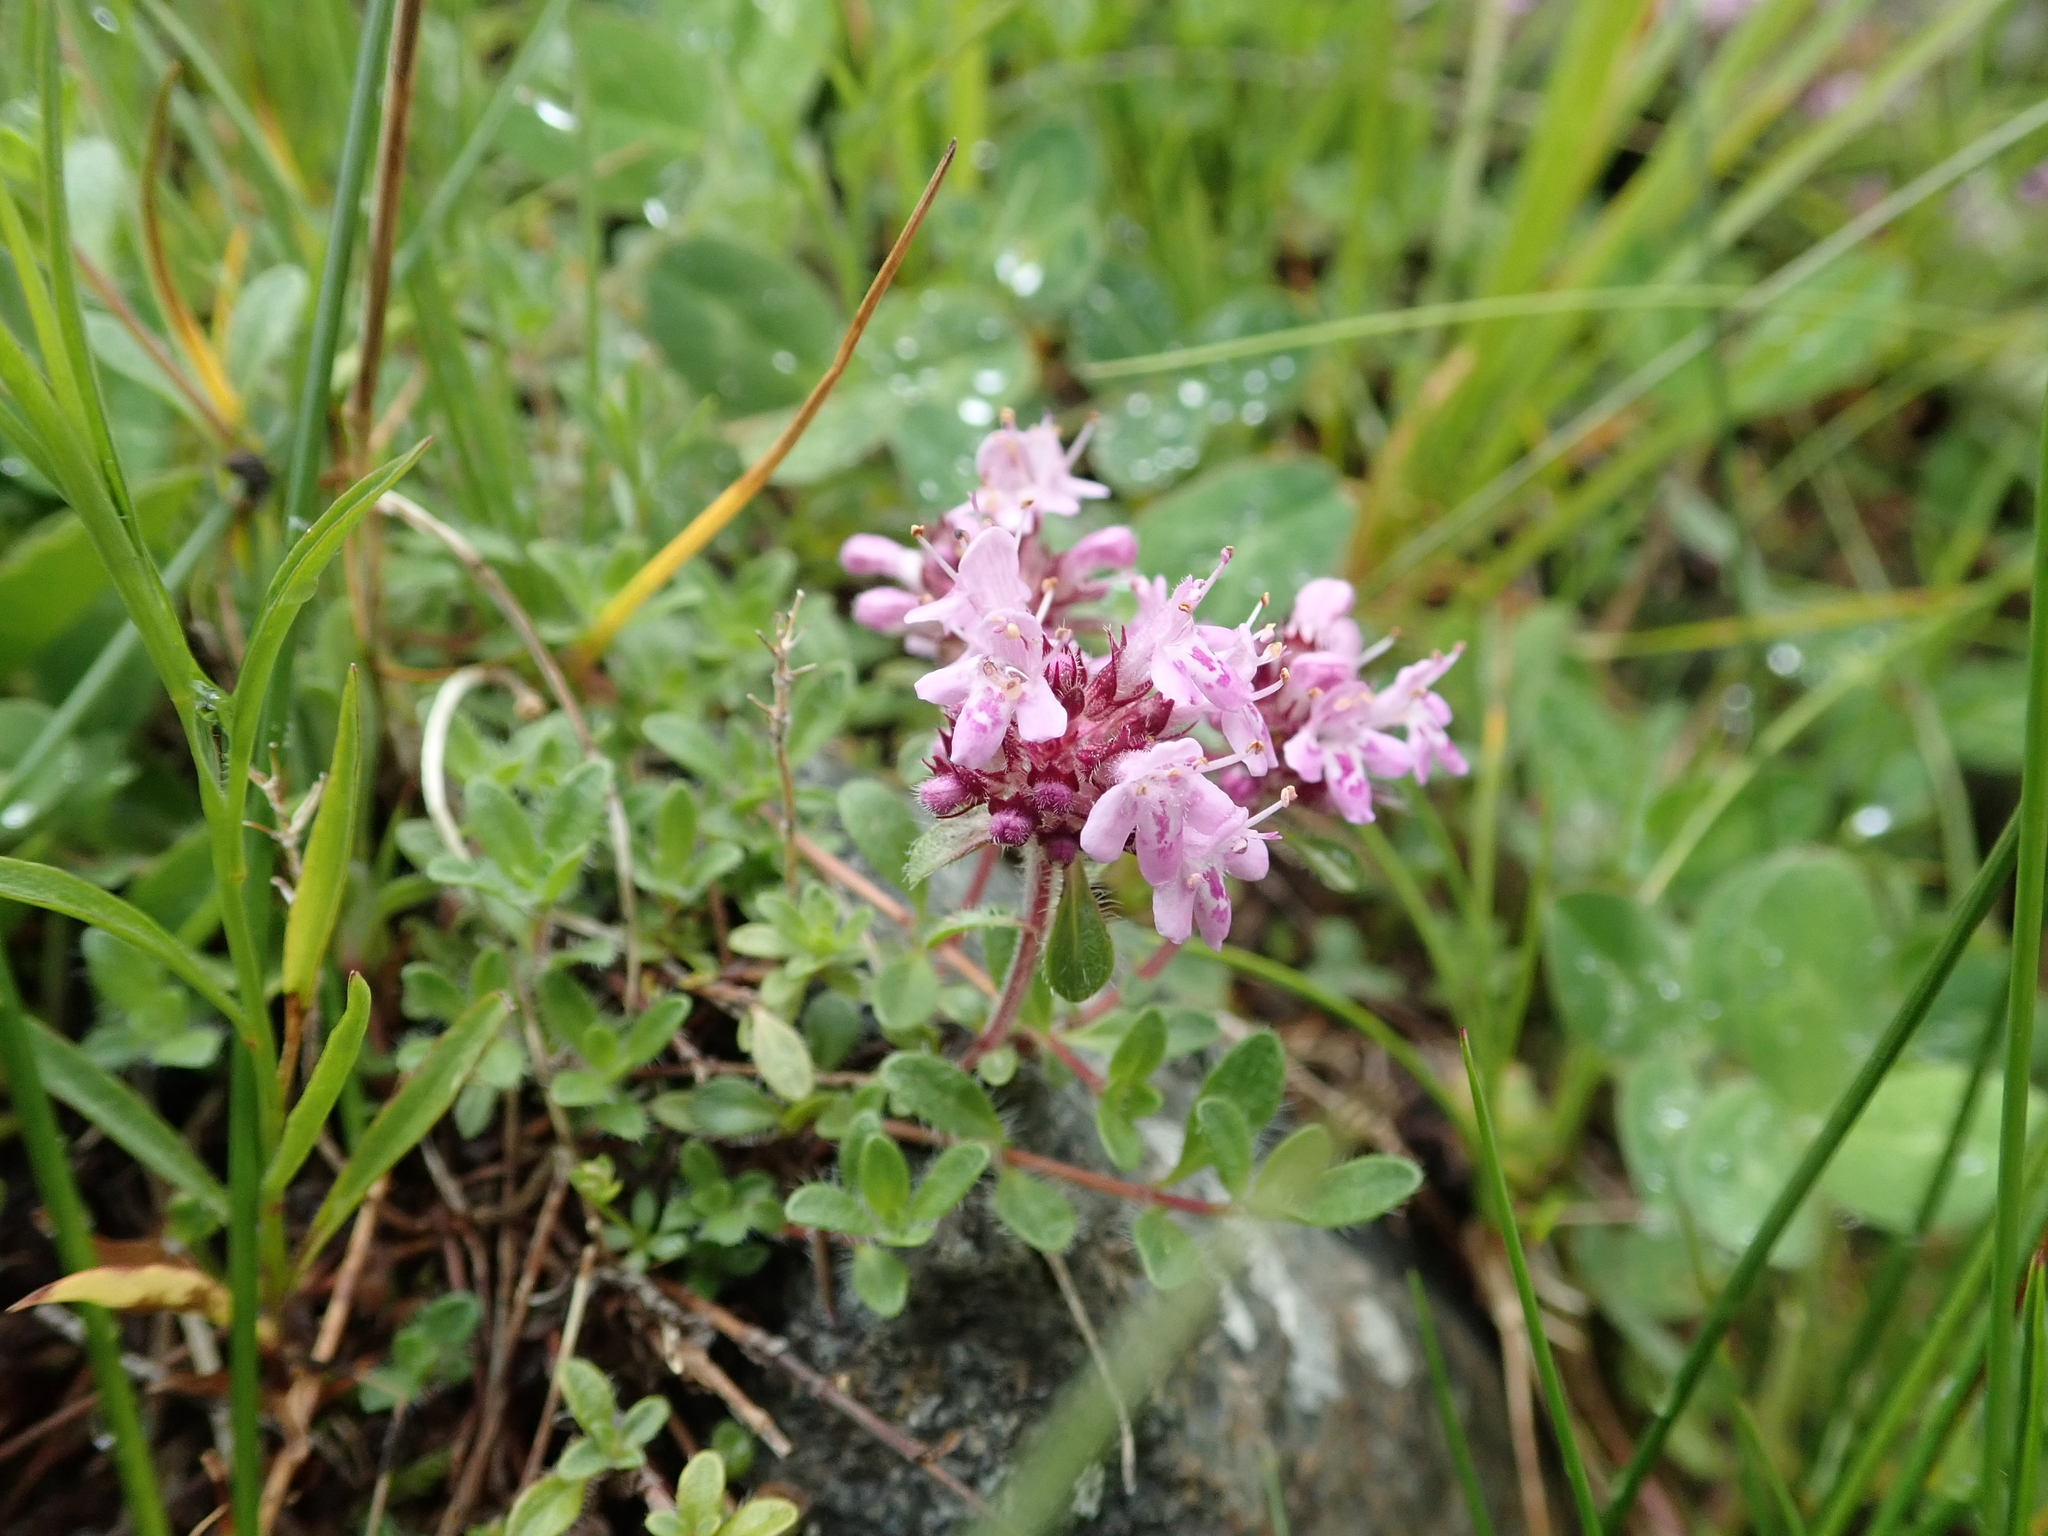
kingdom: Plantae
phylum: Tracheophyta
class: Magnoliopsida
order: Lamiales
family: Lamiaceae
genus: Thymus
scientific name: Thymus praecox
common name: Wild thyme
